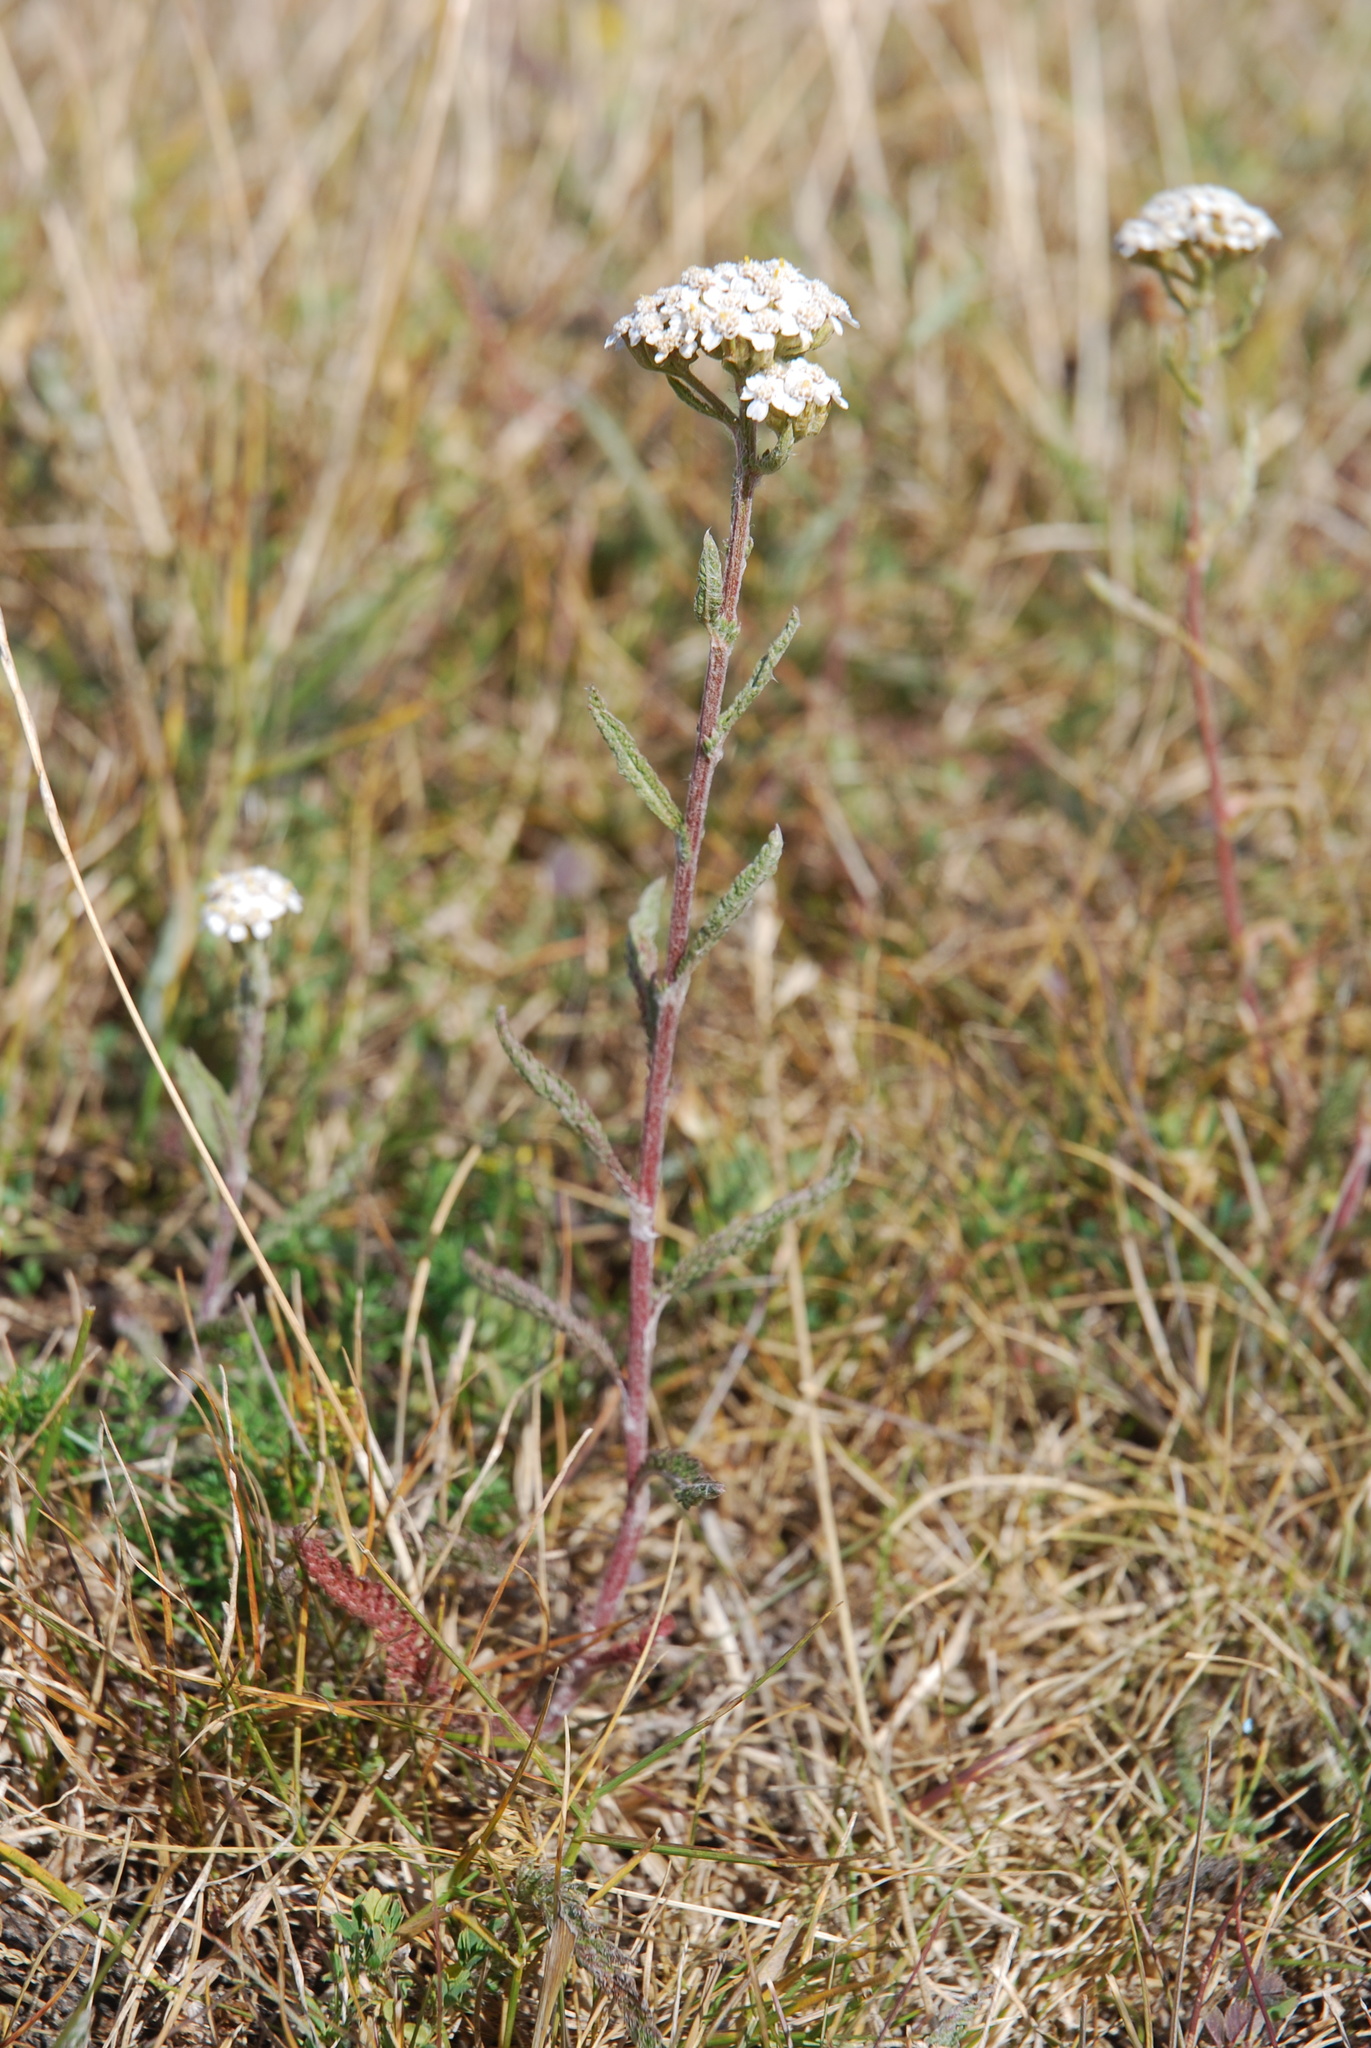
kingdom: Plantae
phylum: Tracheophyta
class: Magnoliopsida
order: Asterales
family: Asteraceae
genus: Achillea
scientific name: Achillea millefolium
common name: Yarrow
